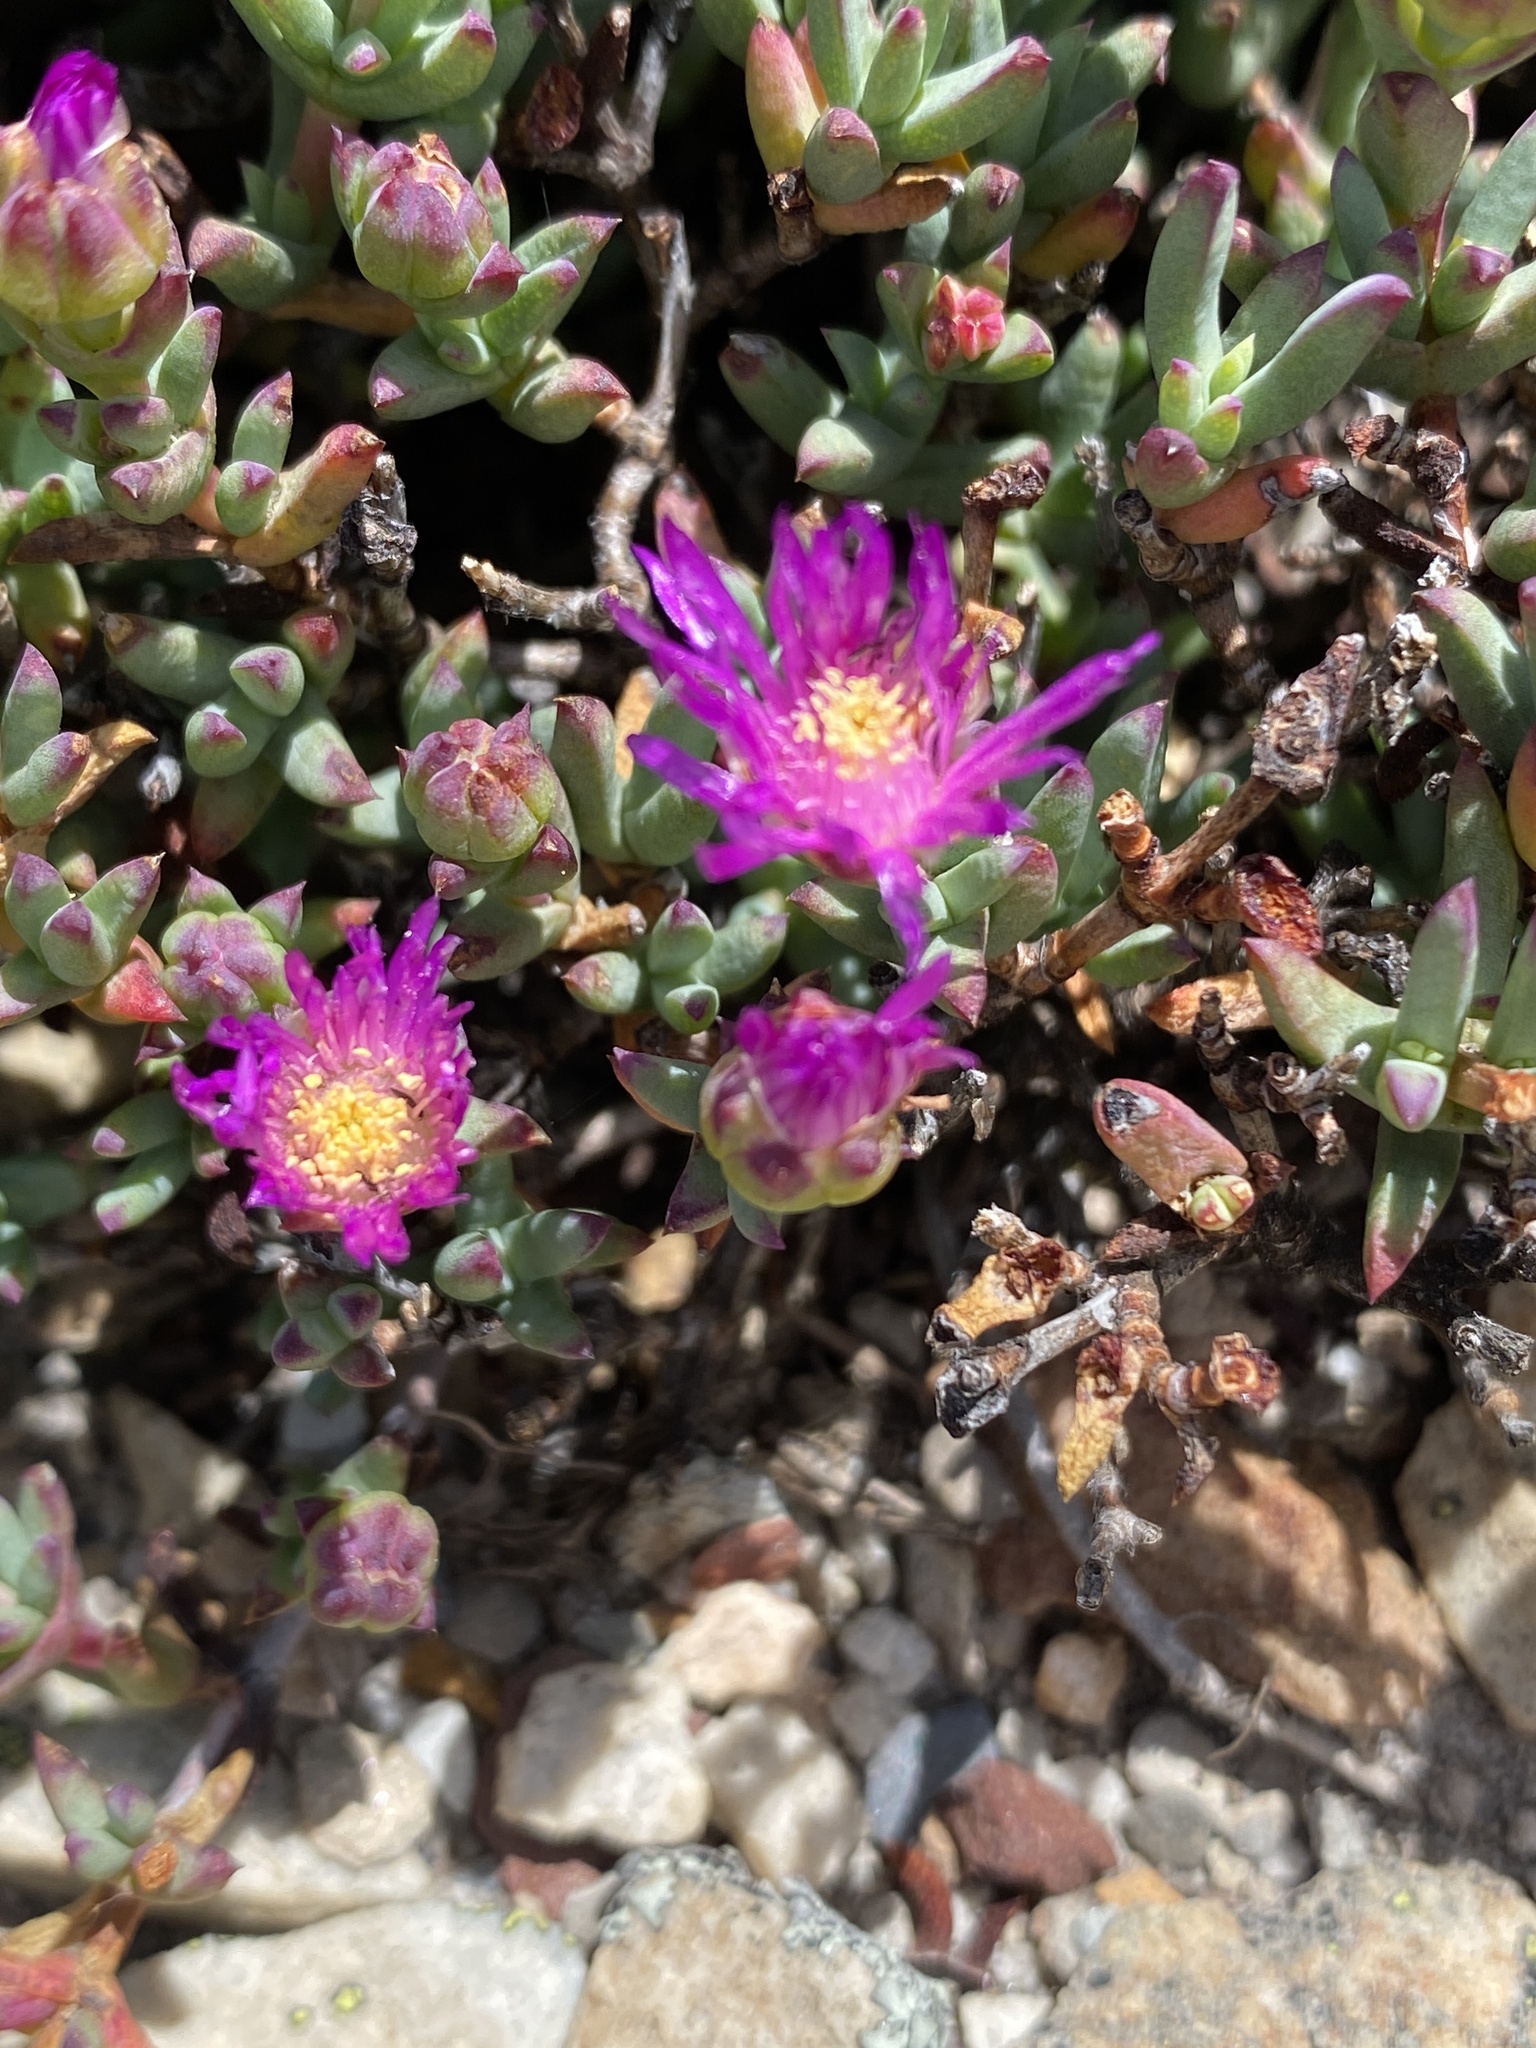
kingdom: Plantae
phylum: Tracheophyta
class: Magnoliopsida
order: Caryophyllales
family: Aizoaceae
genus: Esterhuysenia
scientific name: Esterhuysenia alpina
